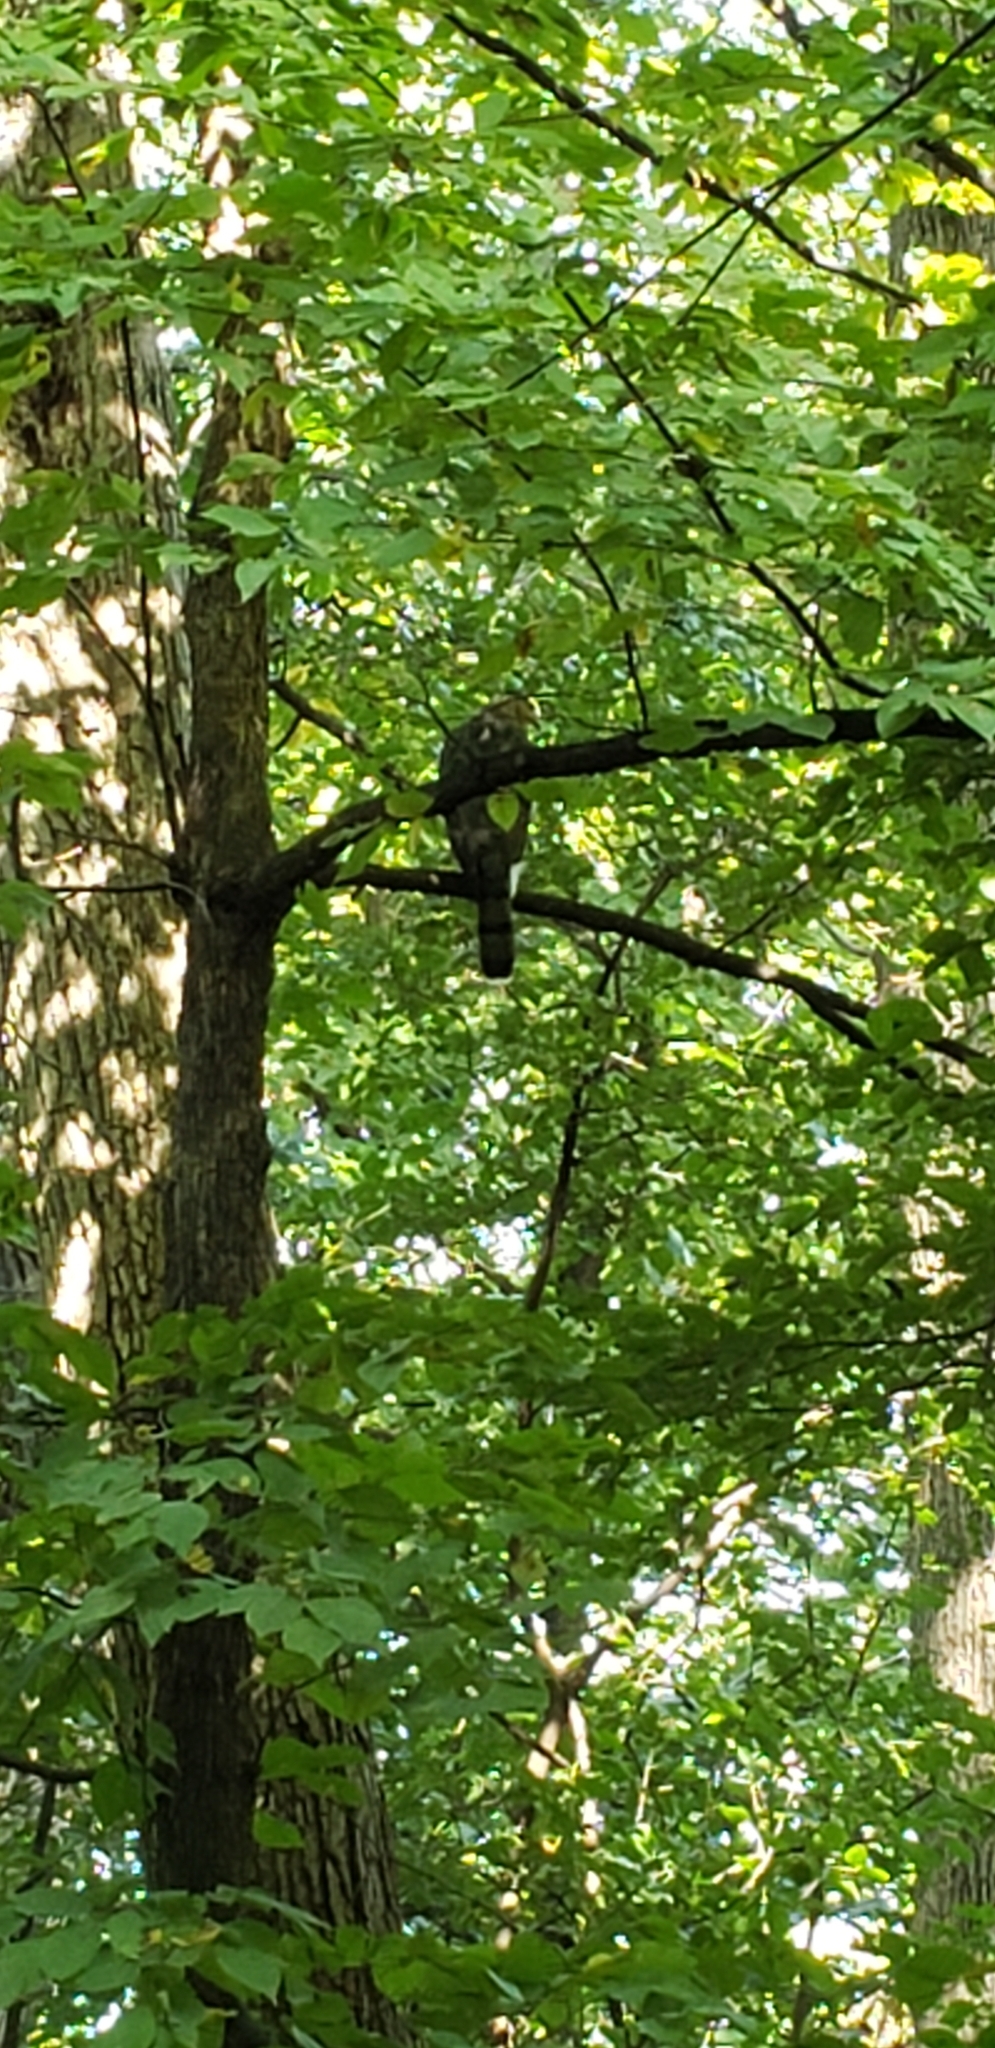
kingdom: Animalia
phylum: Chordata
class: Aves
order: Accipitriformes
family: Accipitridae
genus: Accipiter
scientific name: Accipiter cooperii
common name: Cooper's hawk
